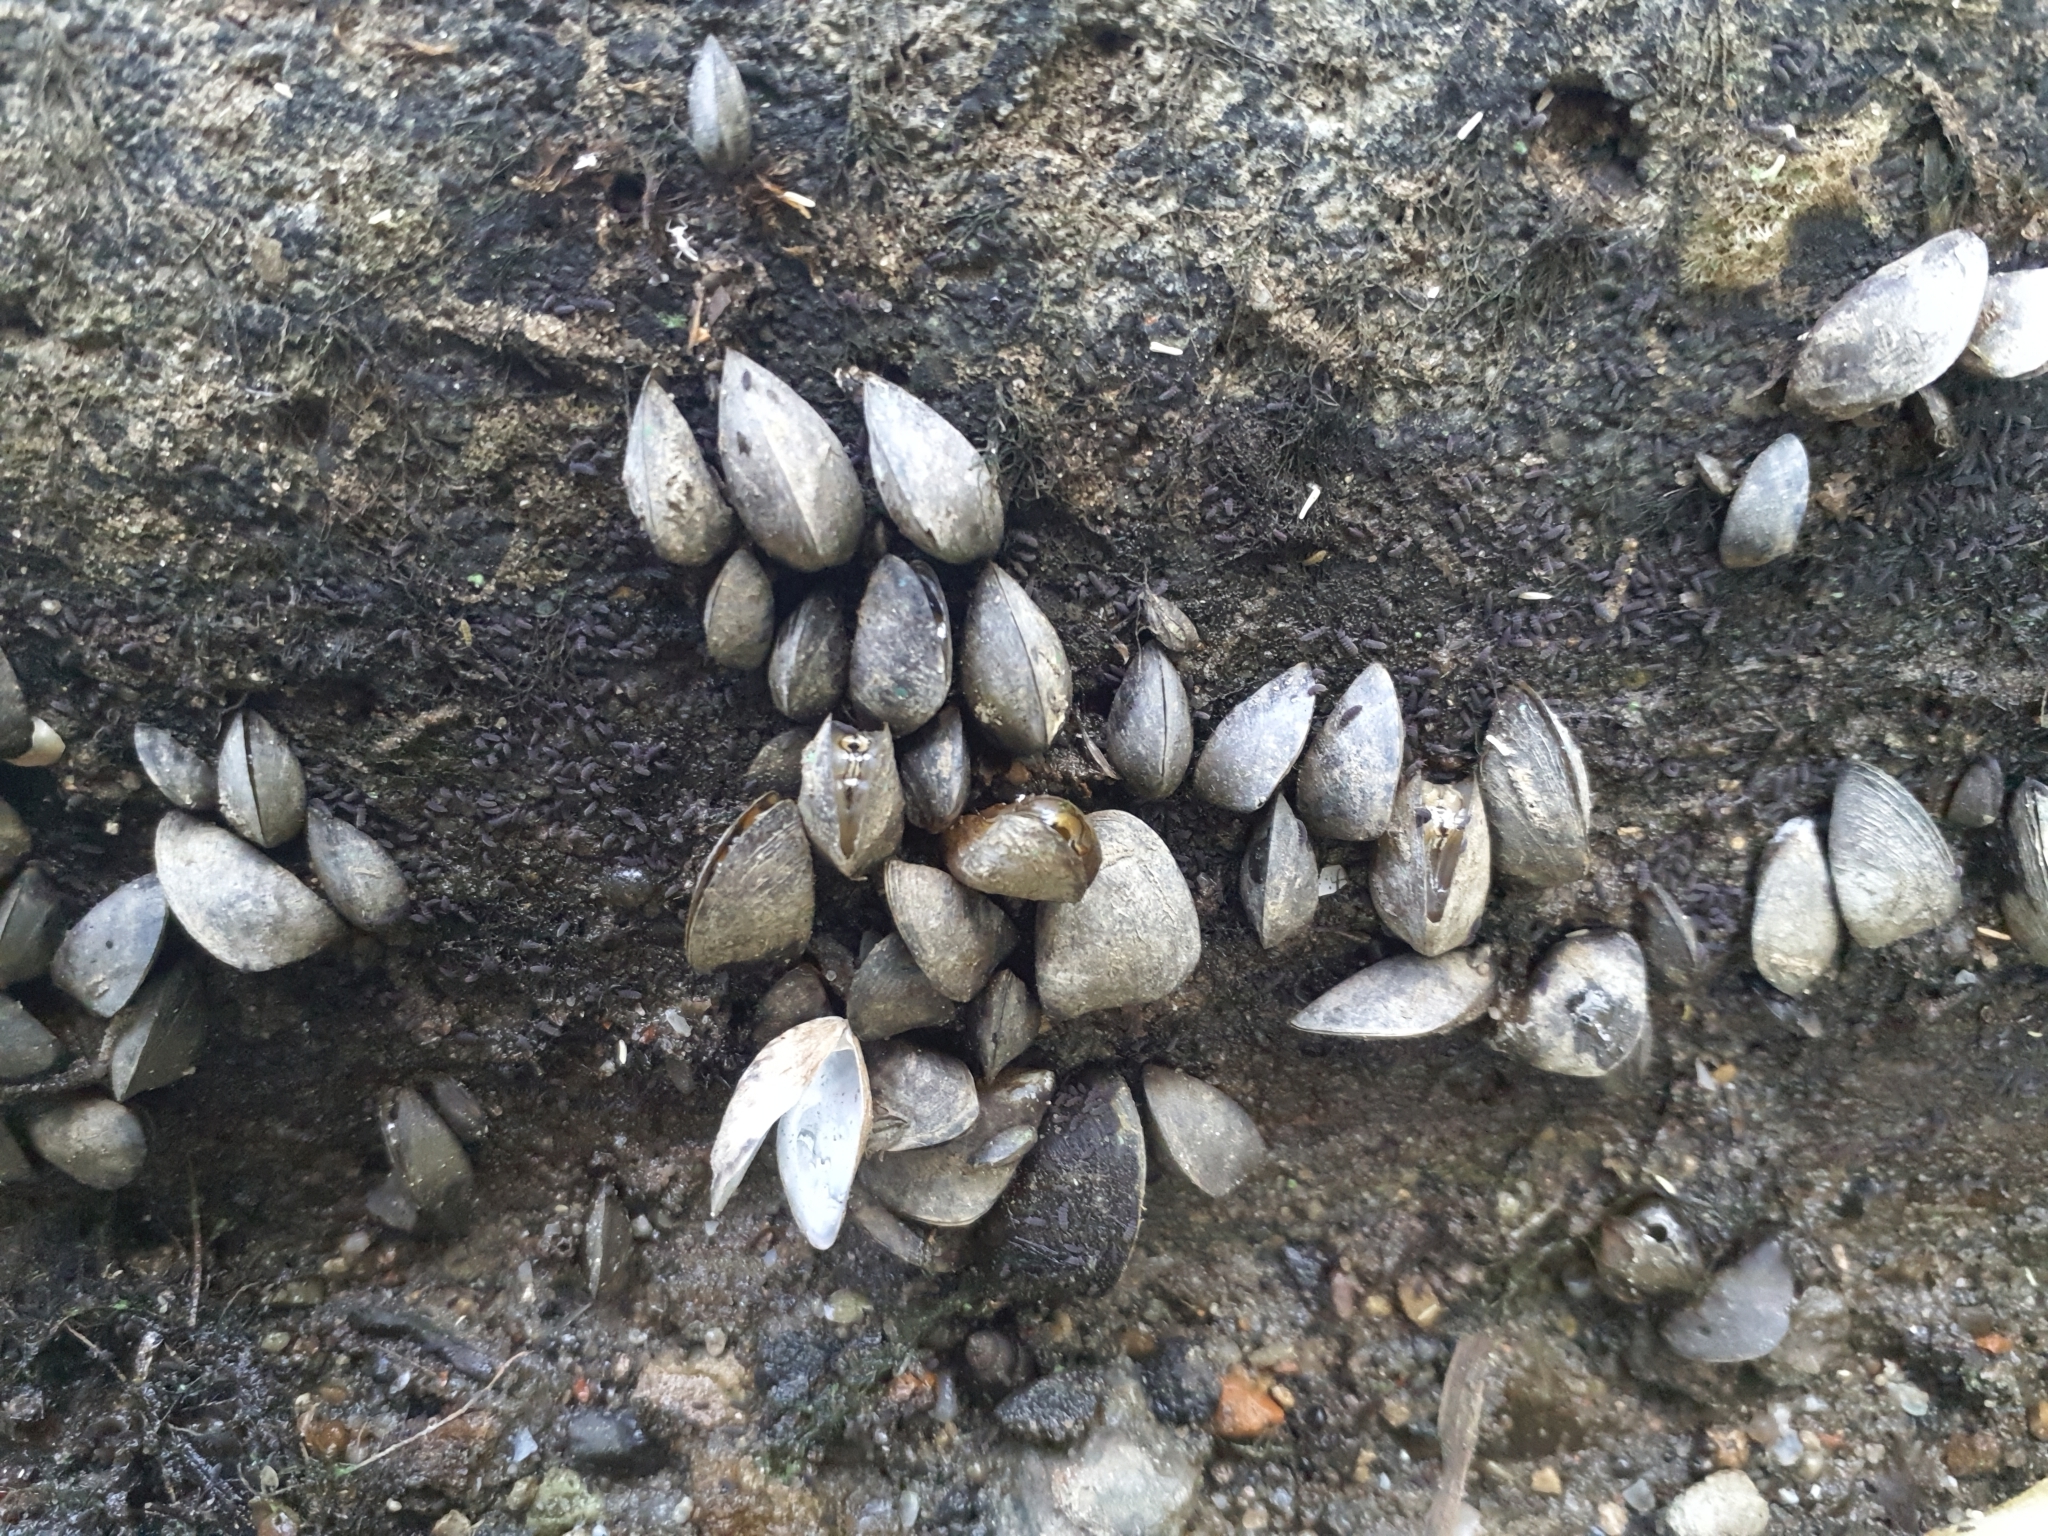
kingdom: Animalia
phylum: Mollusca
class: Bivalvia
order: Myida
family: Dreissenidae
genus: Dreissena
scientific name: Dreissena polymorpha
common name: Zebra mussel
